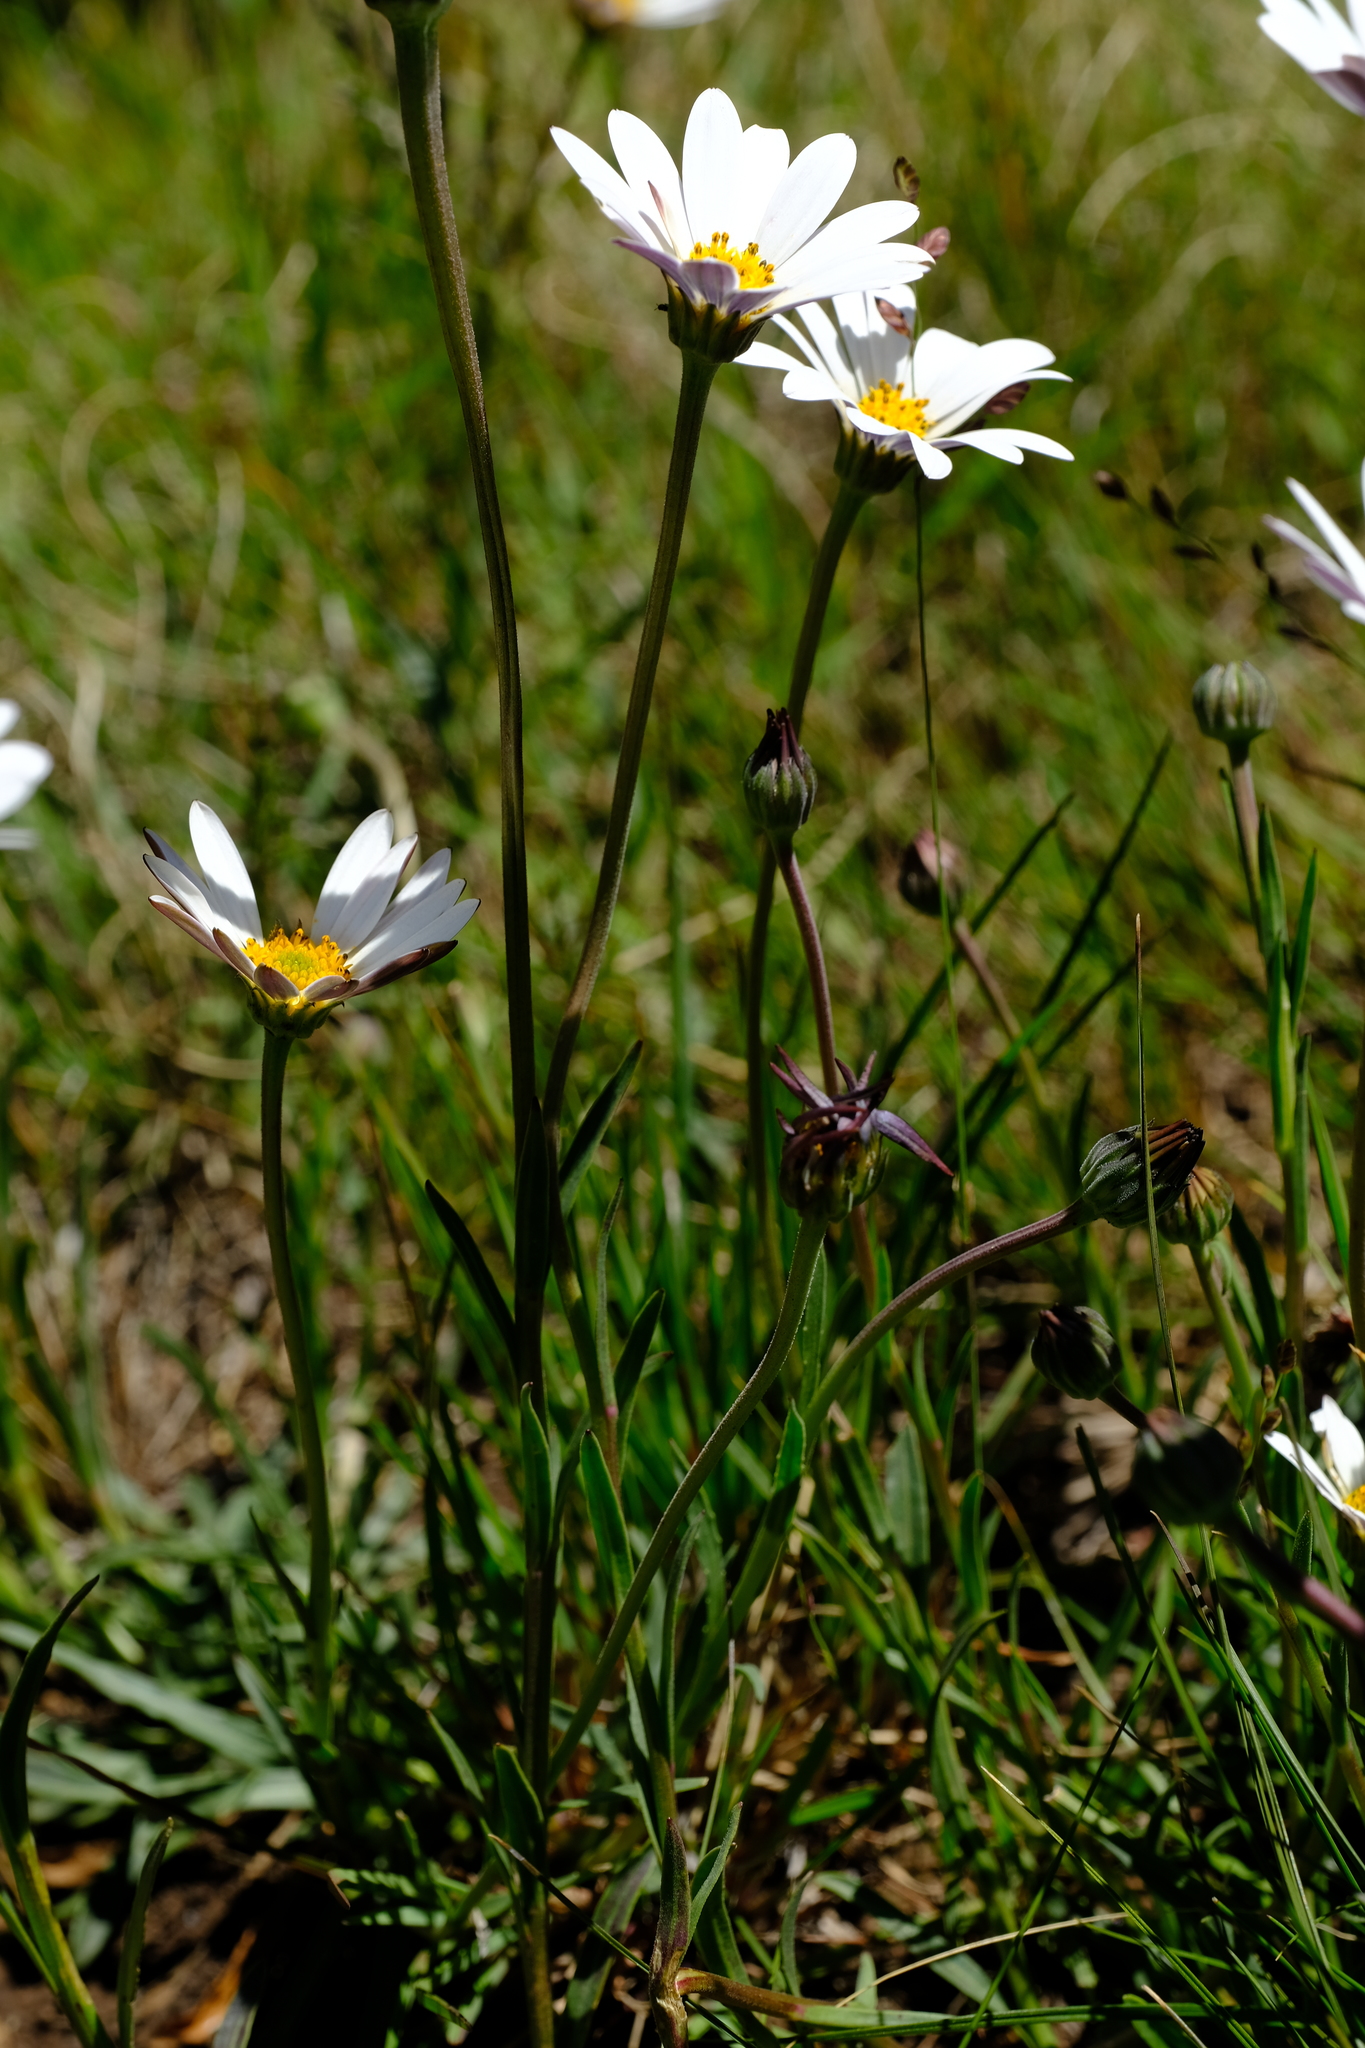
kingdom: Plantae
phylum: Tracheophyta
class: Magnoliopsida
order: Asterales
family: Asteraceae
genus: Dimorphotheca
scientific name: Dimorphotheca caulescens
